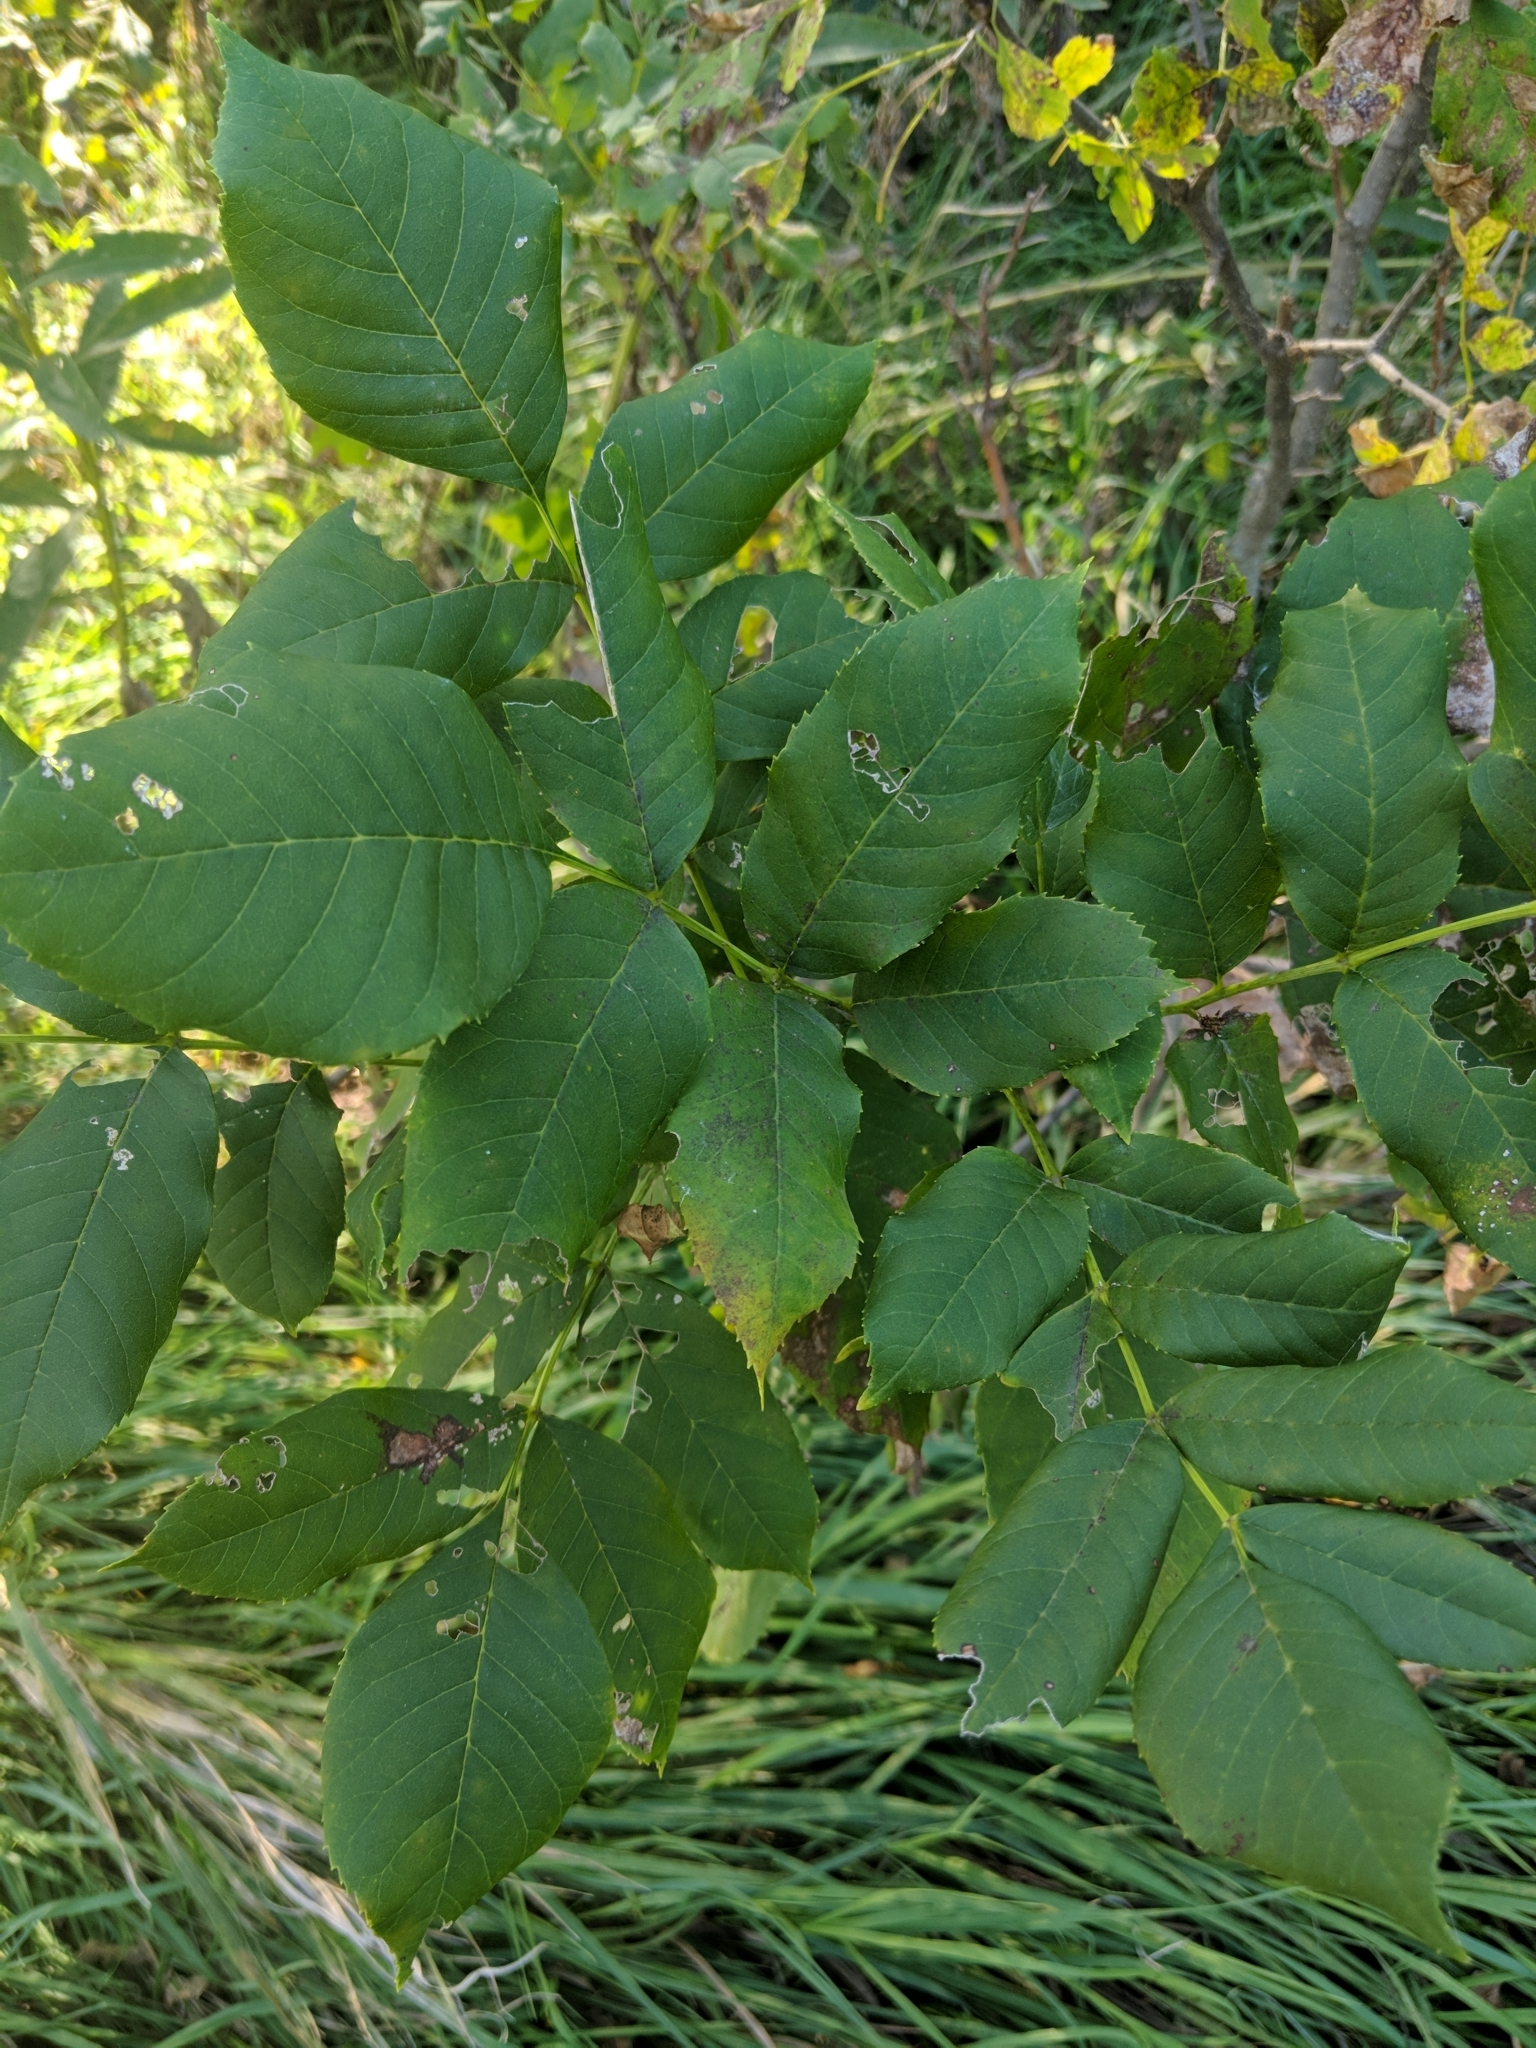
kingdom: Plantae
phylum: Tracheophyta
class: Magnoliopsida
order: Lamiales
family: Oleaceae
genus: Fraxinus
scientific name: Fraxinus pennsylvanica
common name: Green ash
